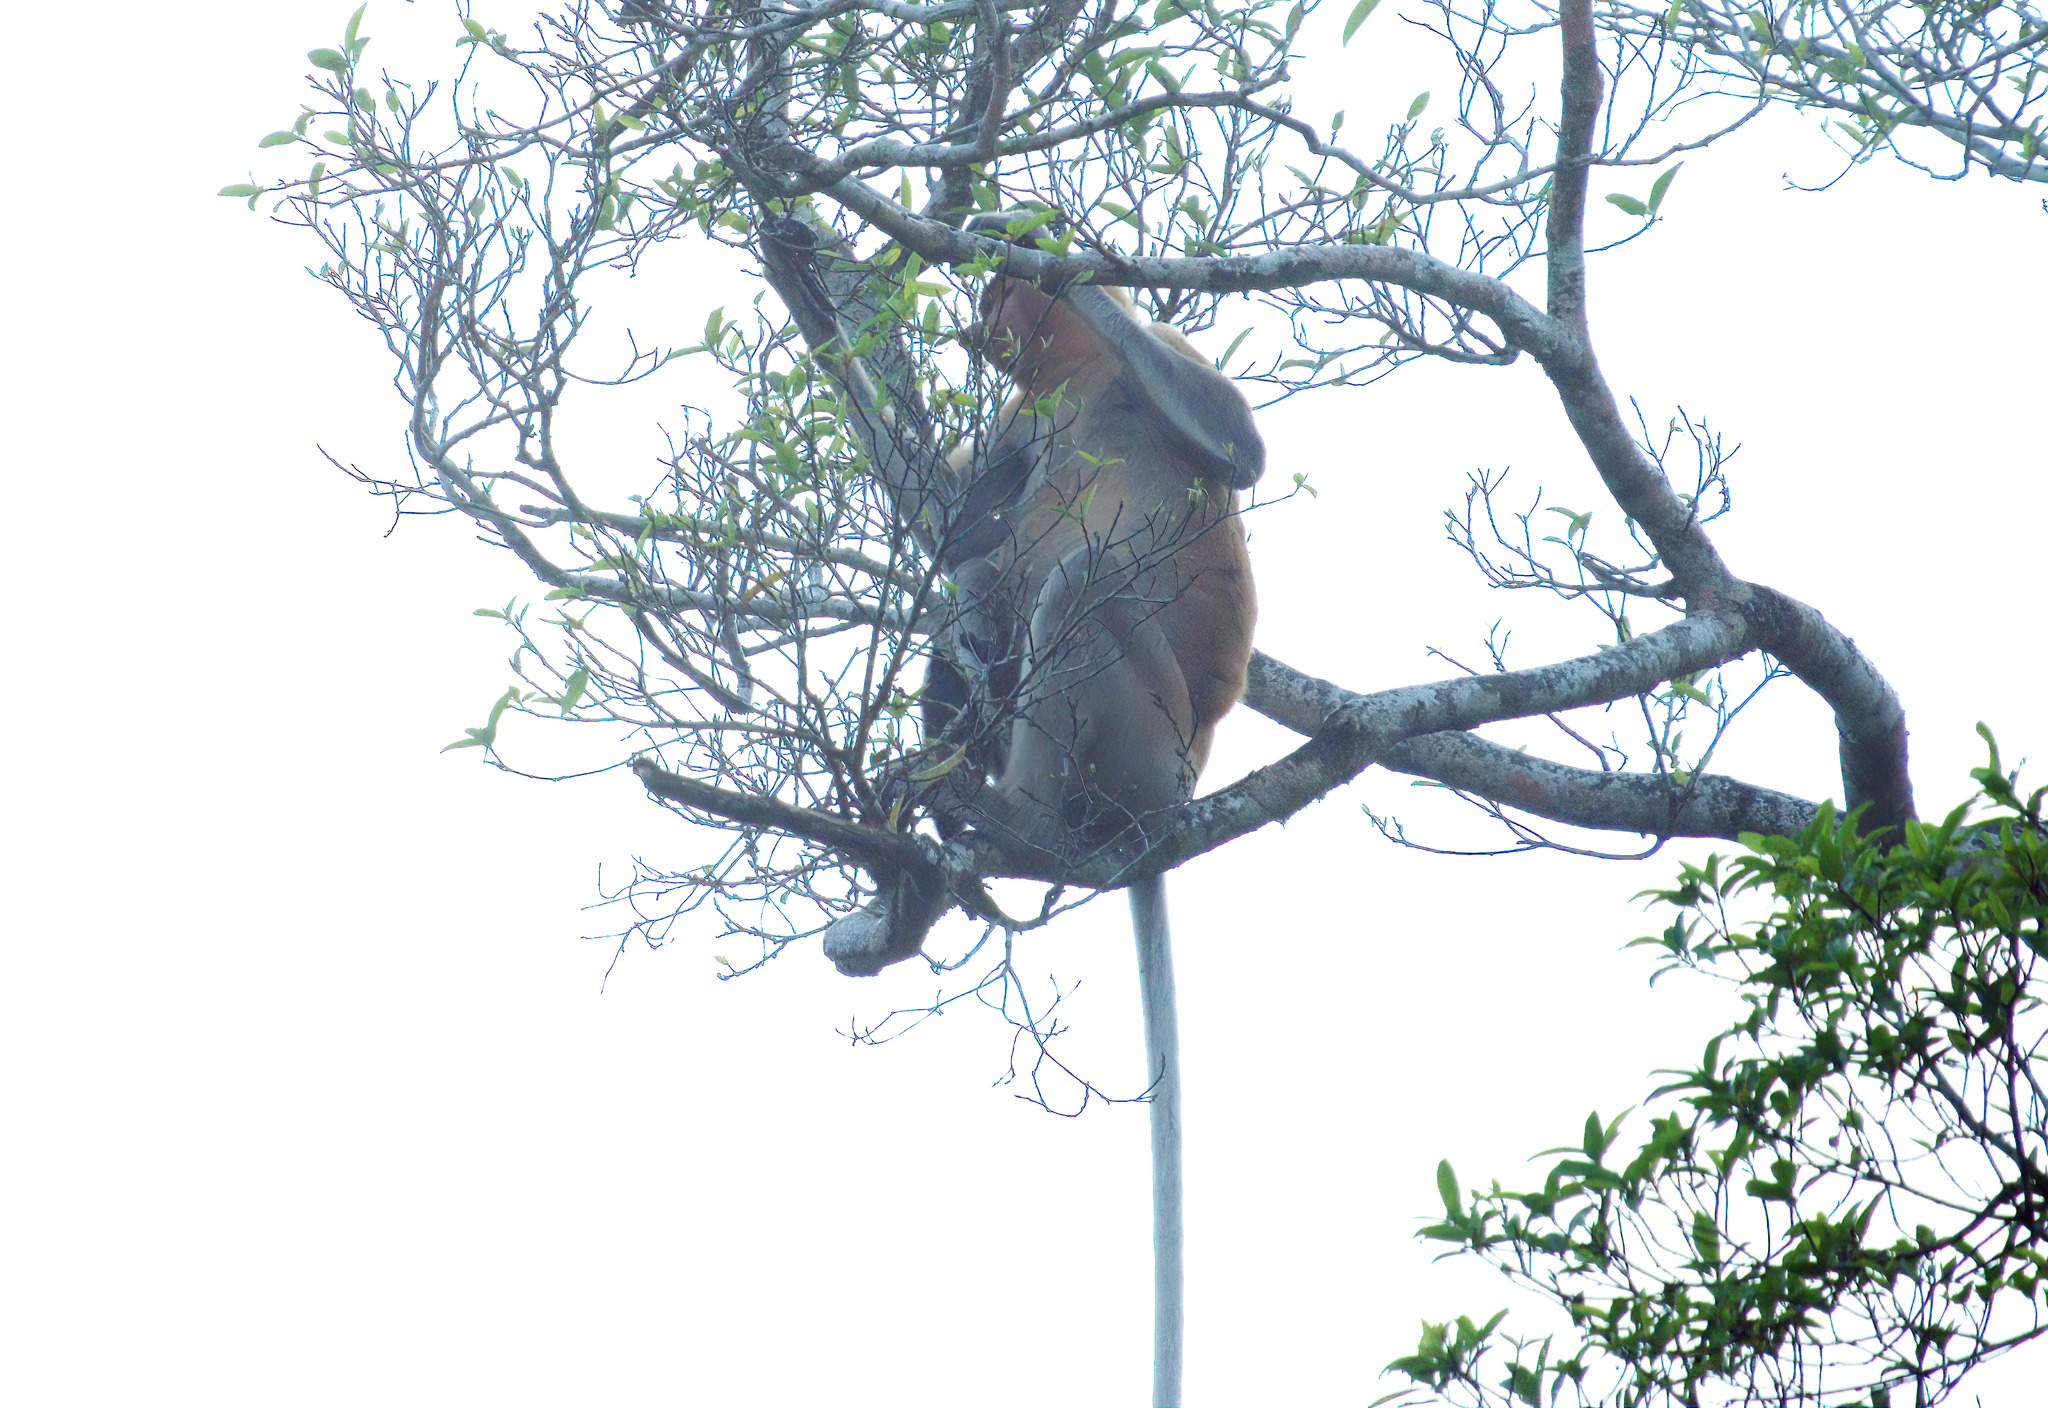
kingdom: Animalia
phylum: Chordata
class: Mammalia
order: Primates
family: Cercopithecidae
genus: Nasalis
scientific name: Nasalis larvatus
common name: Proboscis monkey
